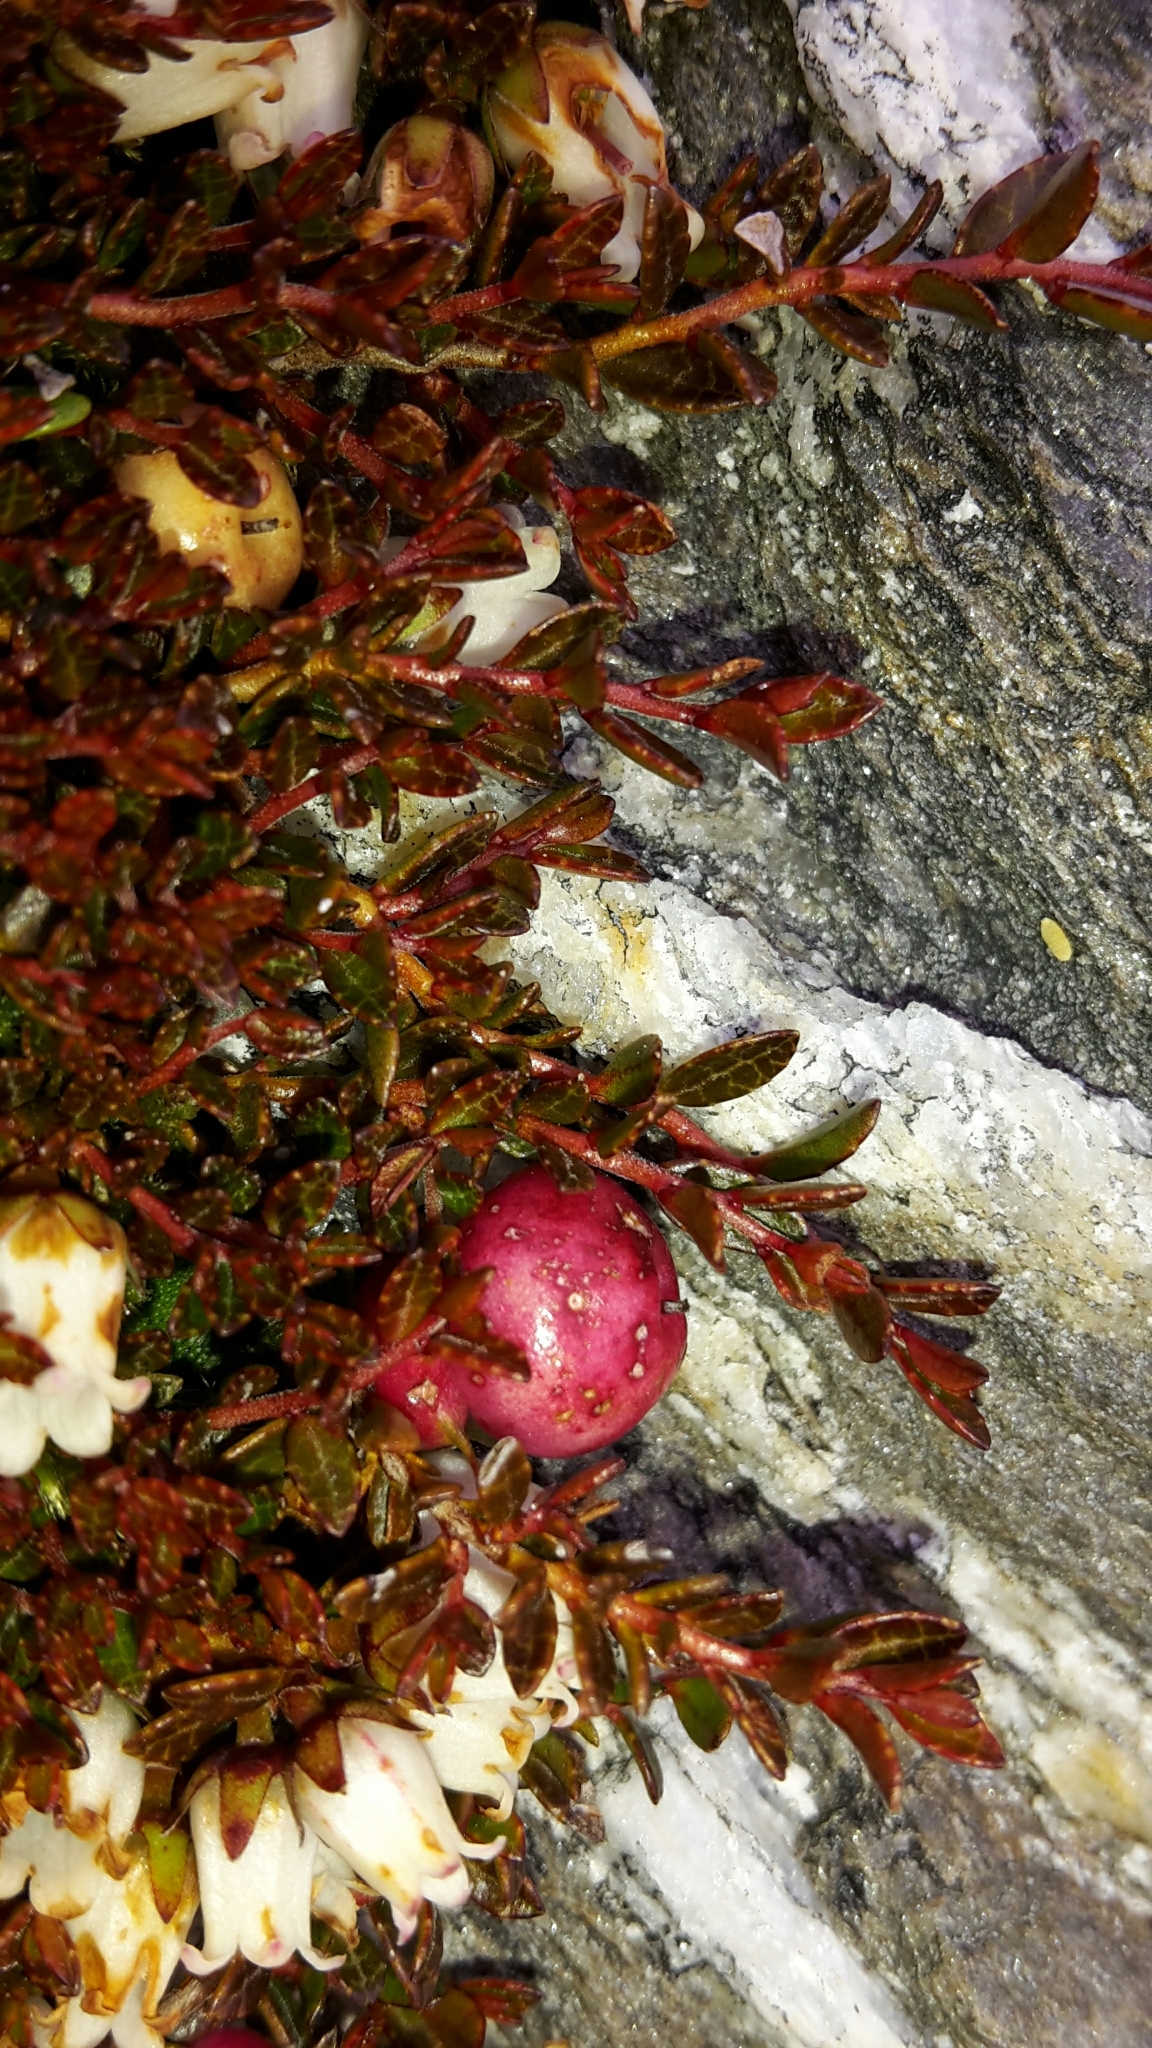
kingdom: Plantae
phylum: Tracheophyta
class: Magnoliopsida
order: Ericales
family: Ericaceae
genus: Gaultheria
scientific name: Gaultheria parvula
